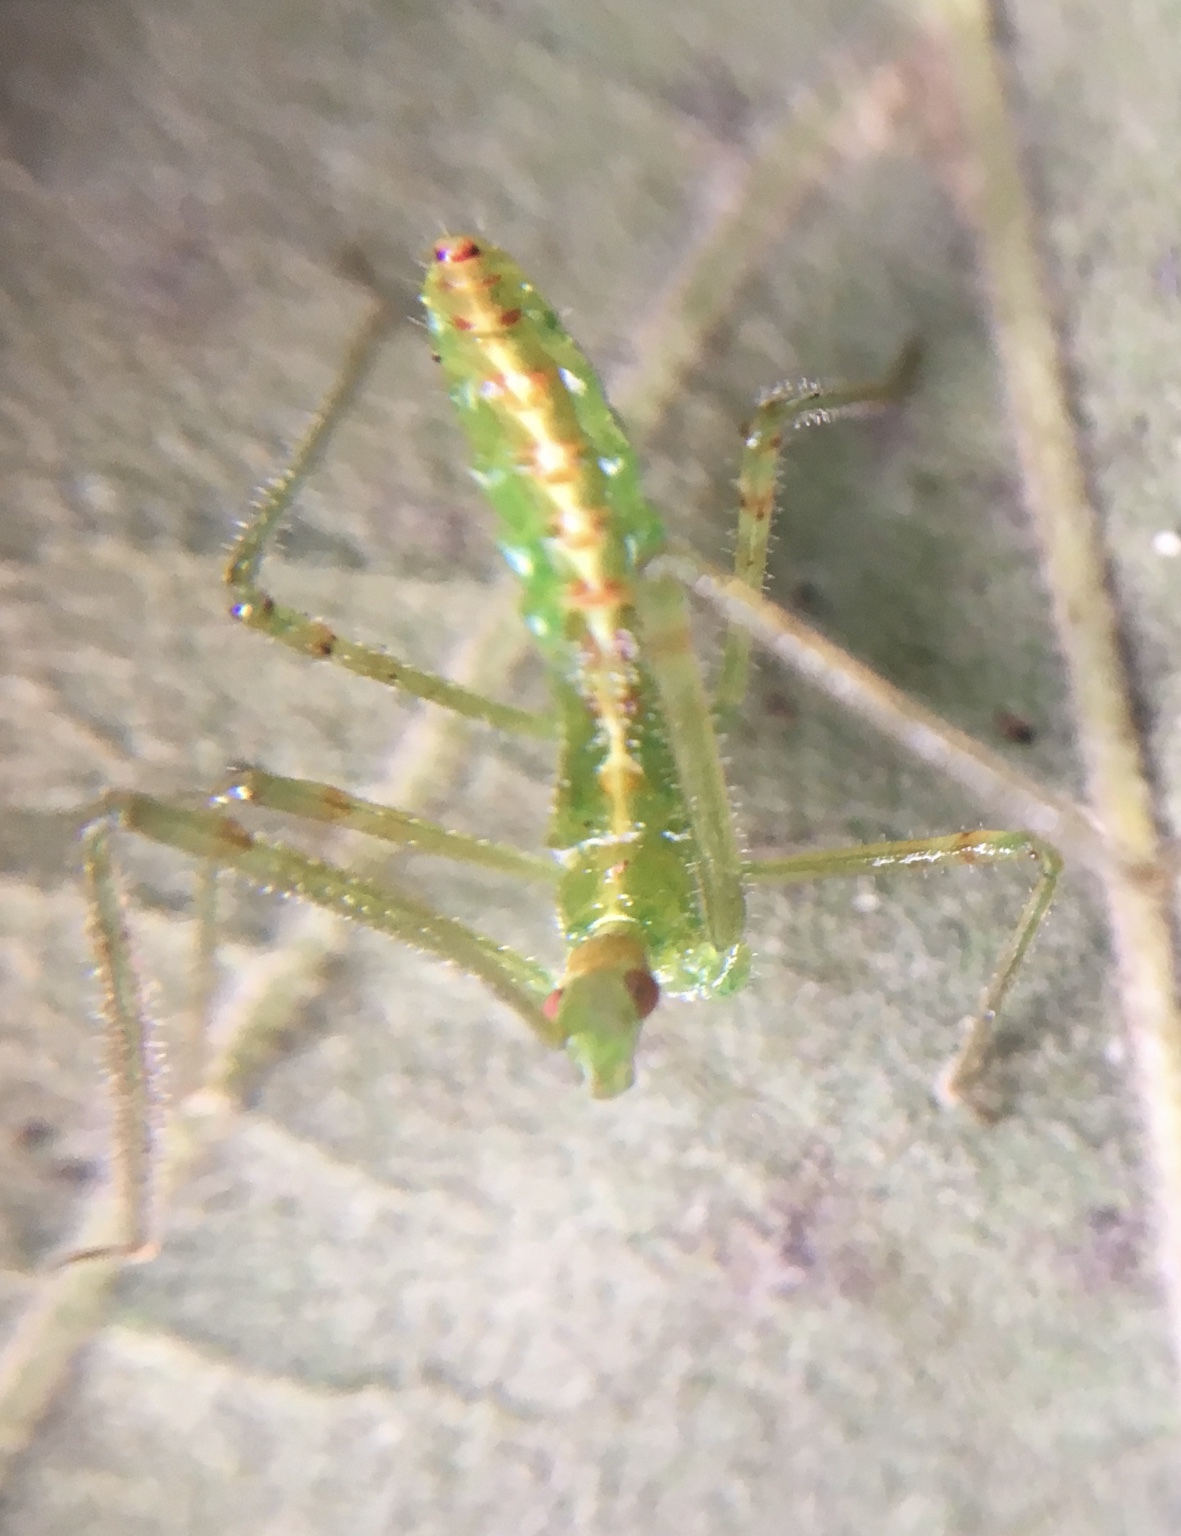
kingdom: Animalia
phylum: Arthropoda
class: Insecta
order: Hemiptera
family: Reduviidae
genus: Zelus
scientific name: Zelus luridus
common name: Pale green assassin bug
